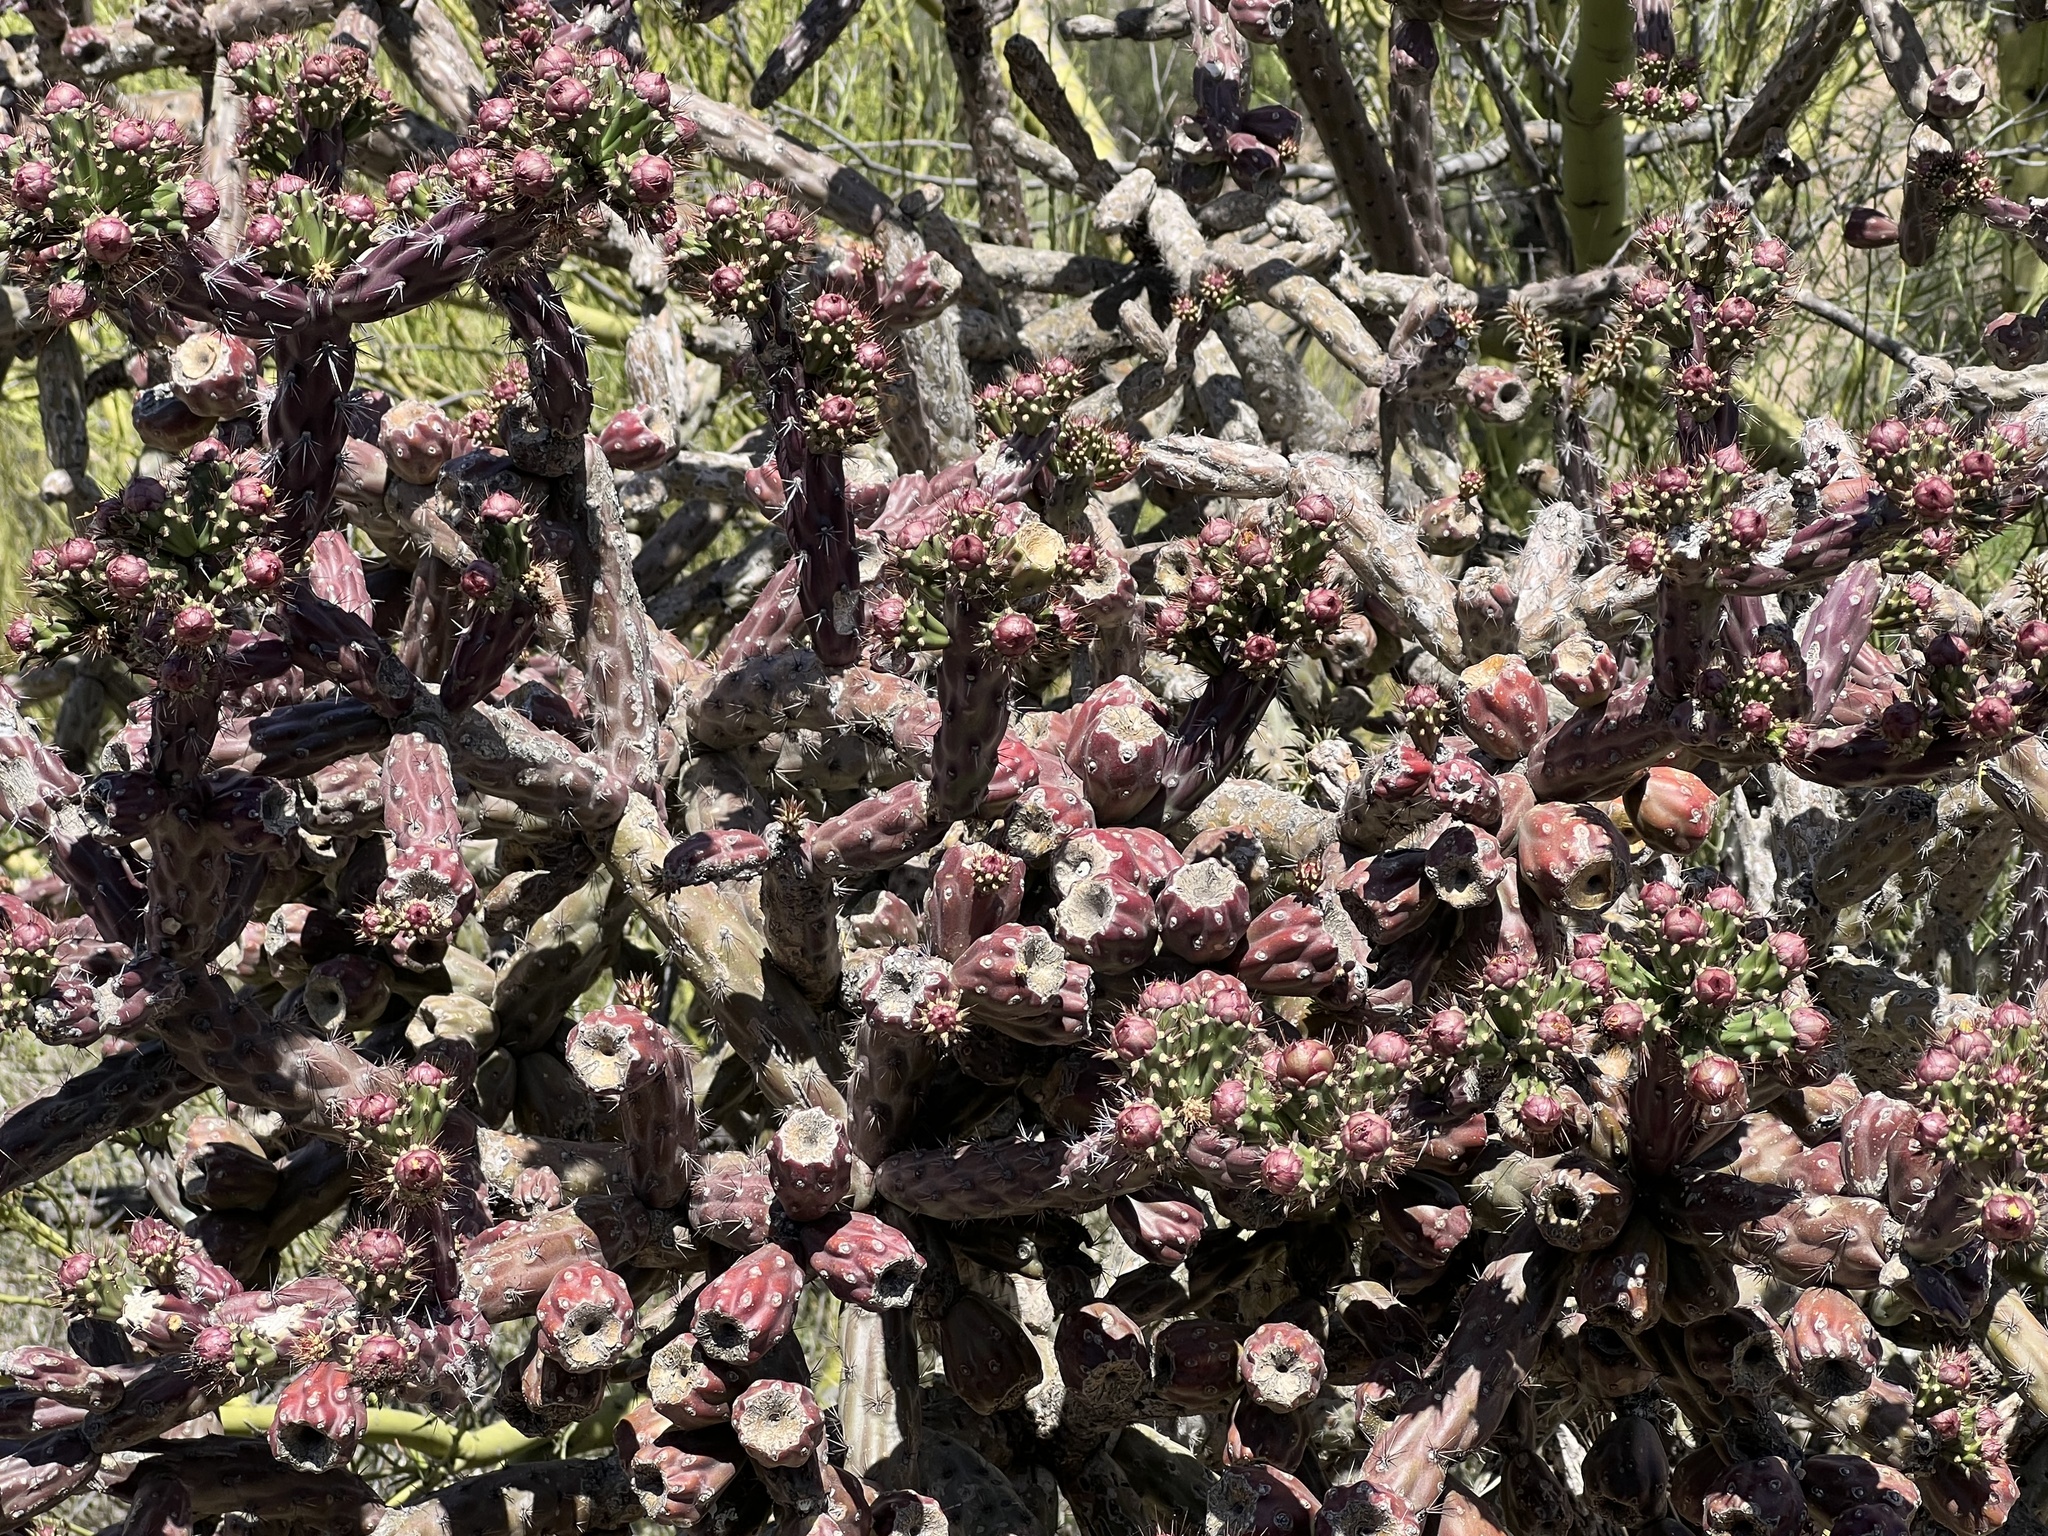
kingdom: Plantae
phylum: Tracheophyta
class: Magnoliopsida
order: Caryophyllales
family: Cactaceae
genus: Cylindropuntia
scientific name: Cylindropuntia thurberi
